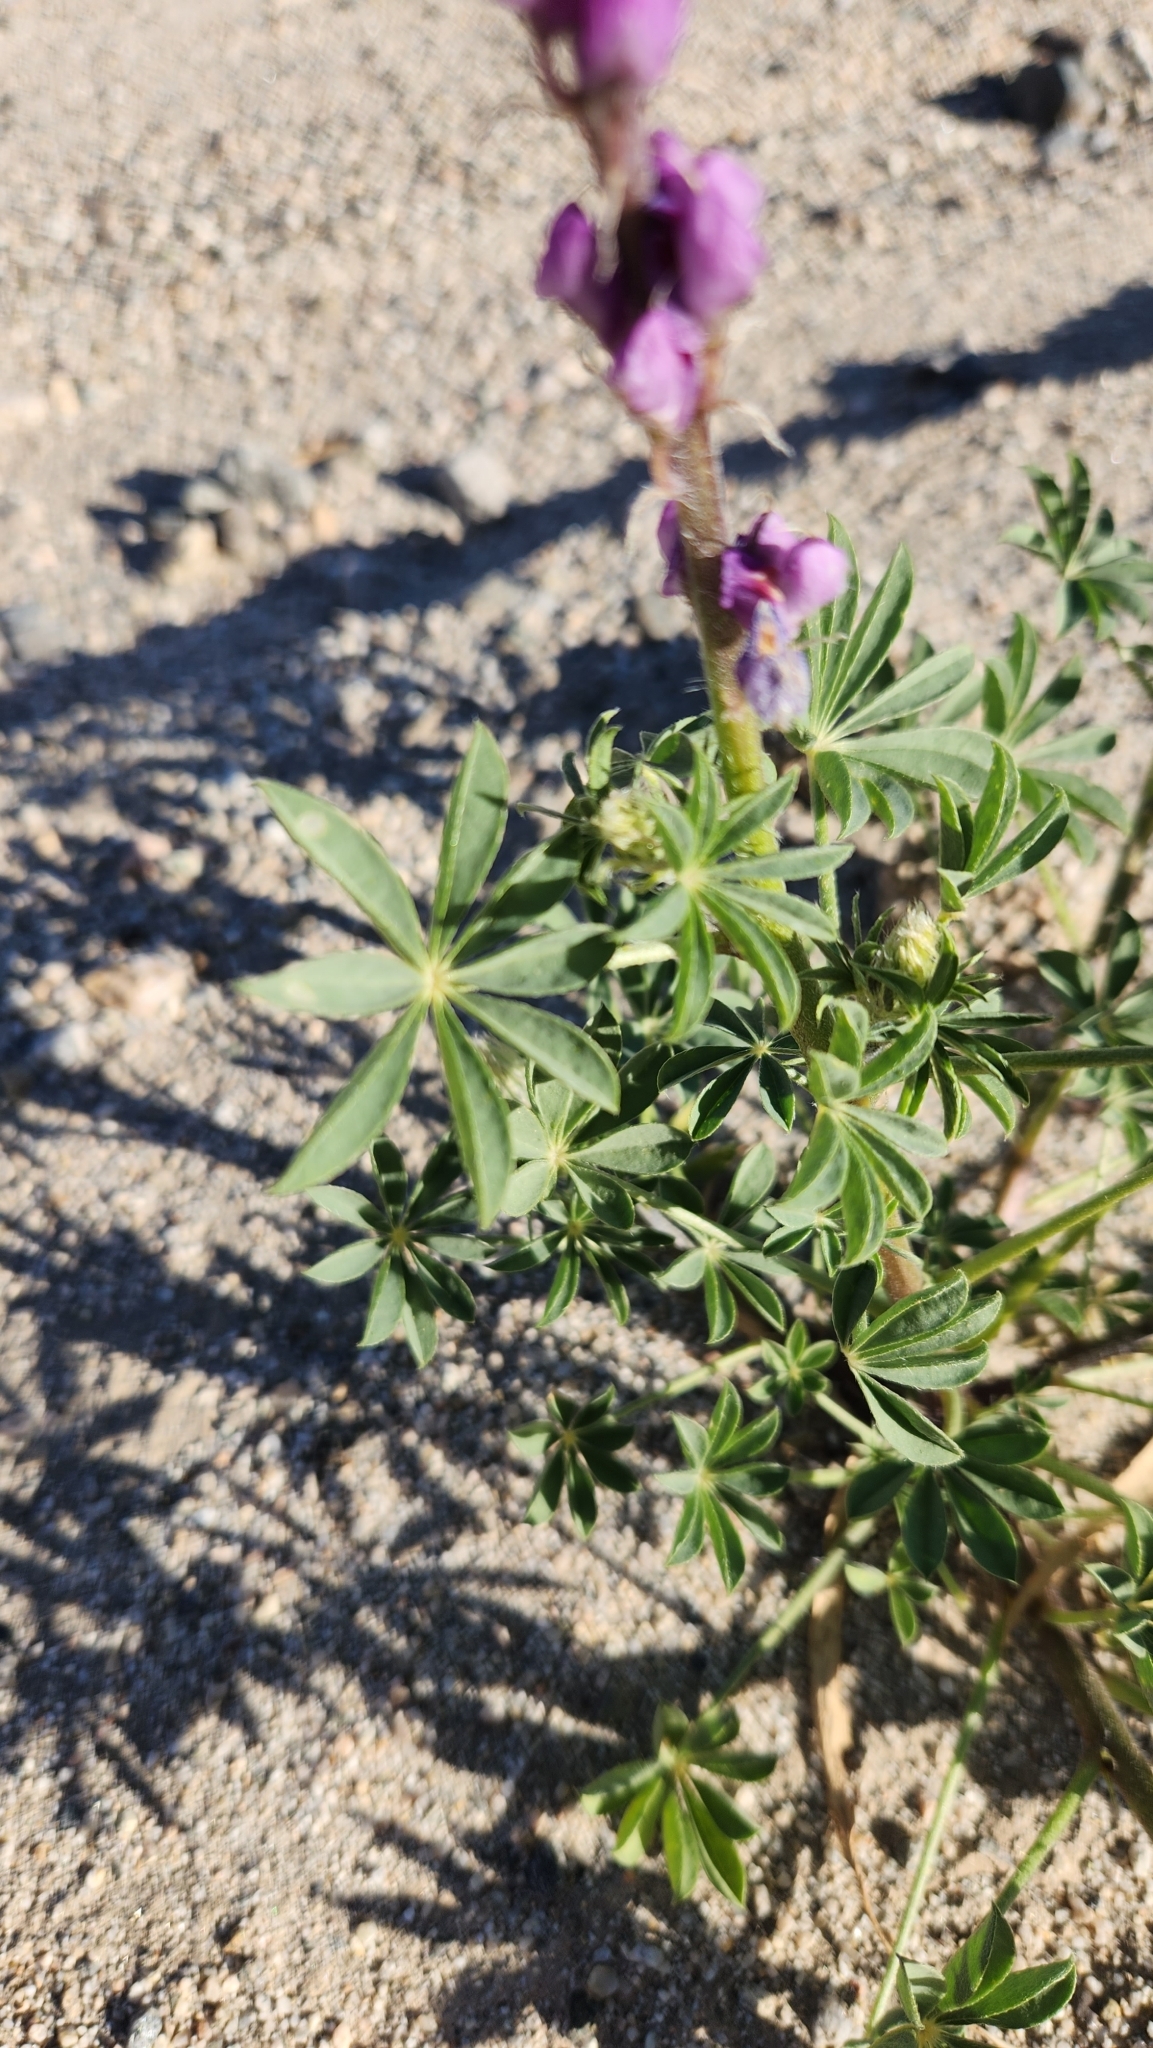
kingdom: Plantae
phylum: Tracheophyta
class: Magnoliopsida
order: Fabales
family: Fabaceae
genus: Lupinus
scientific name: Lupinus arizonicus
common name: Arizona lupine
